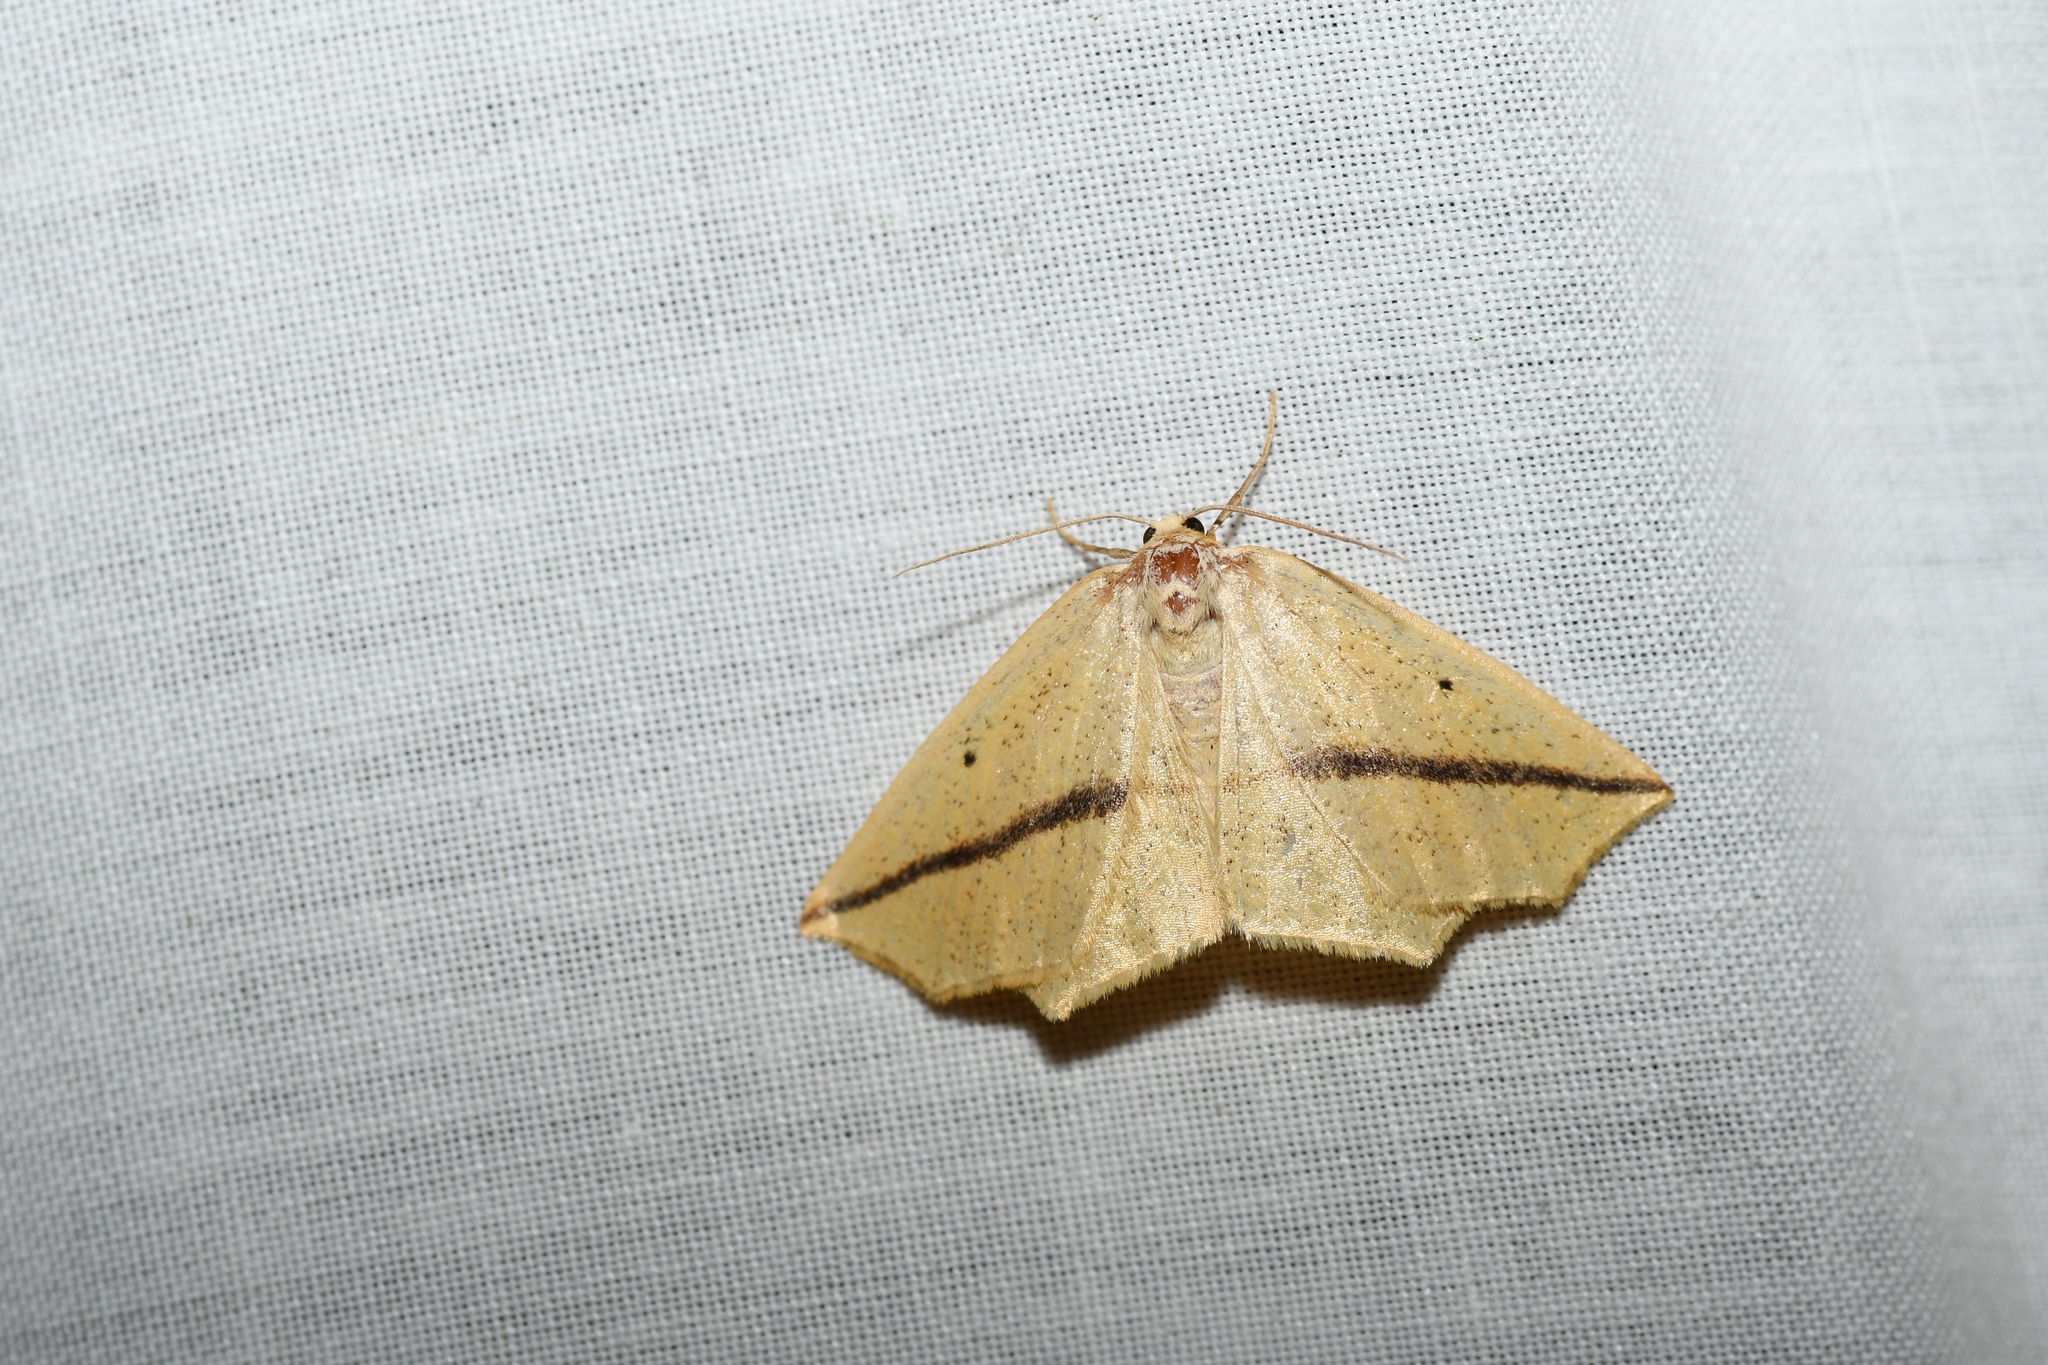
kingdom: Animalia
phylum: Arthropoda
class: Insecta
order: Lepidoptera
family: Geometridae
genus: Tetracis
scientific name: Tetracis crocallata
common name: Yellow slant-line
